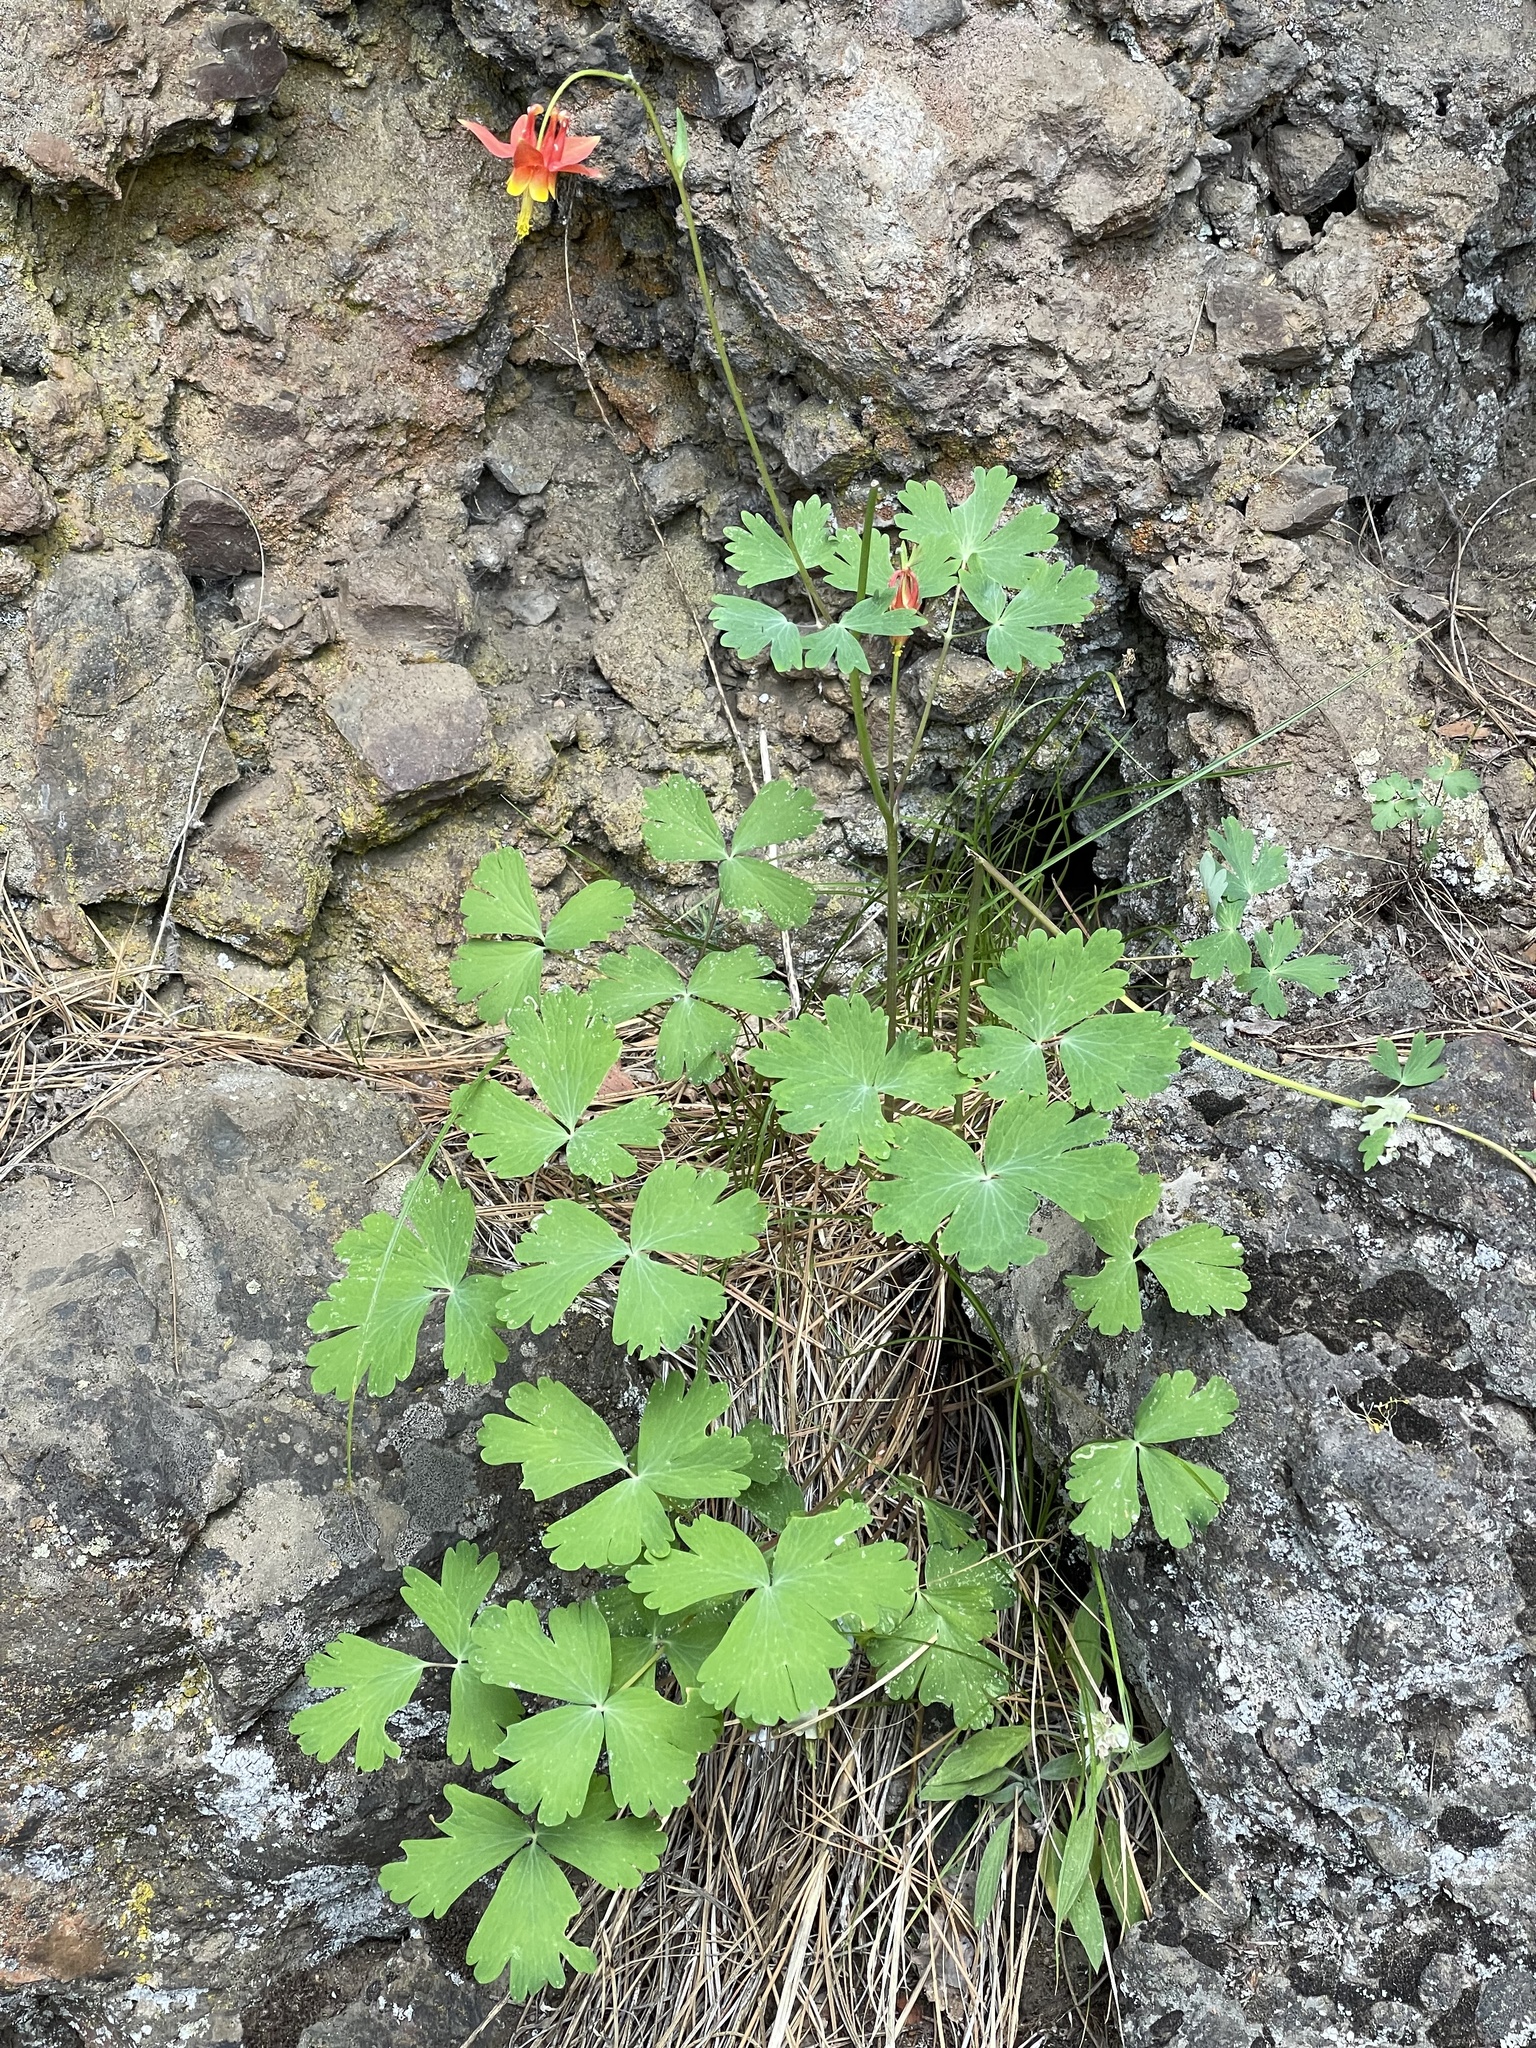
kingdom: Plantae
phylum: Tracheophyta
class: Magnoliopsida
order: Ranunculales
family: Ranunculaceae
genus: Aquilegia
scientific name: Aquilegia formosa
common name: Sitka columbine
